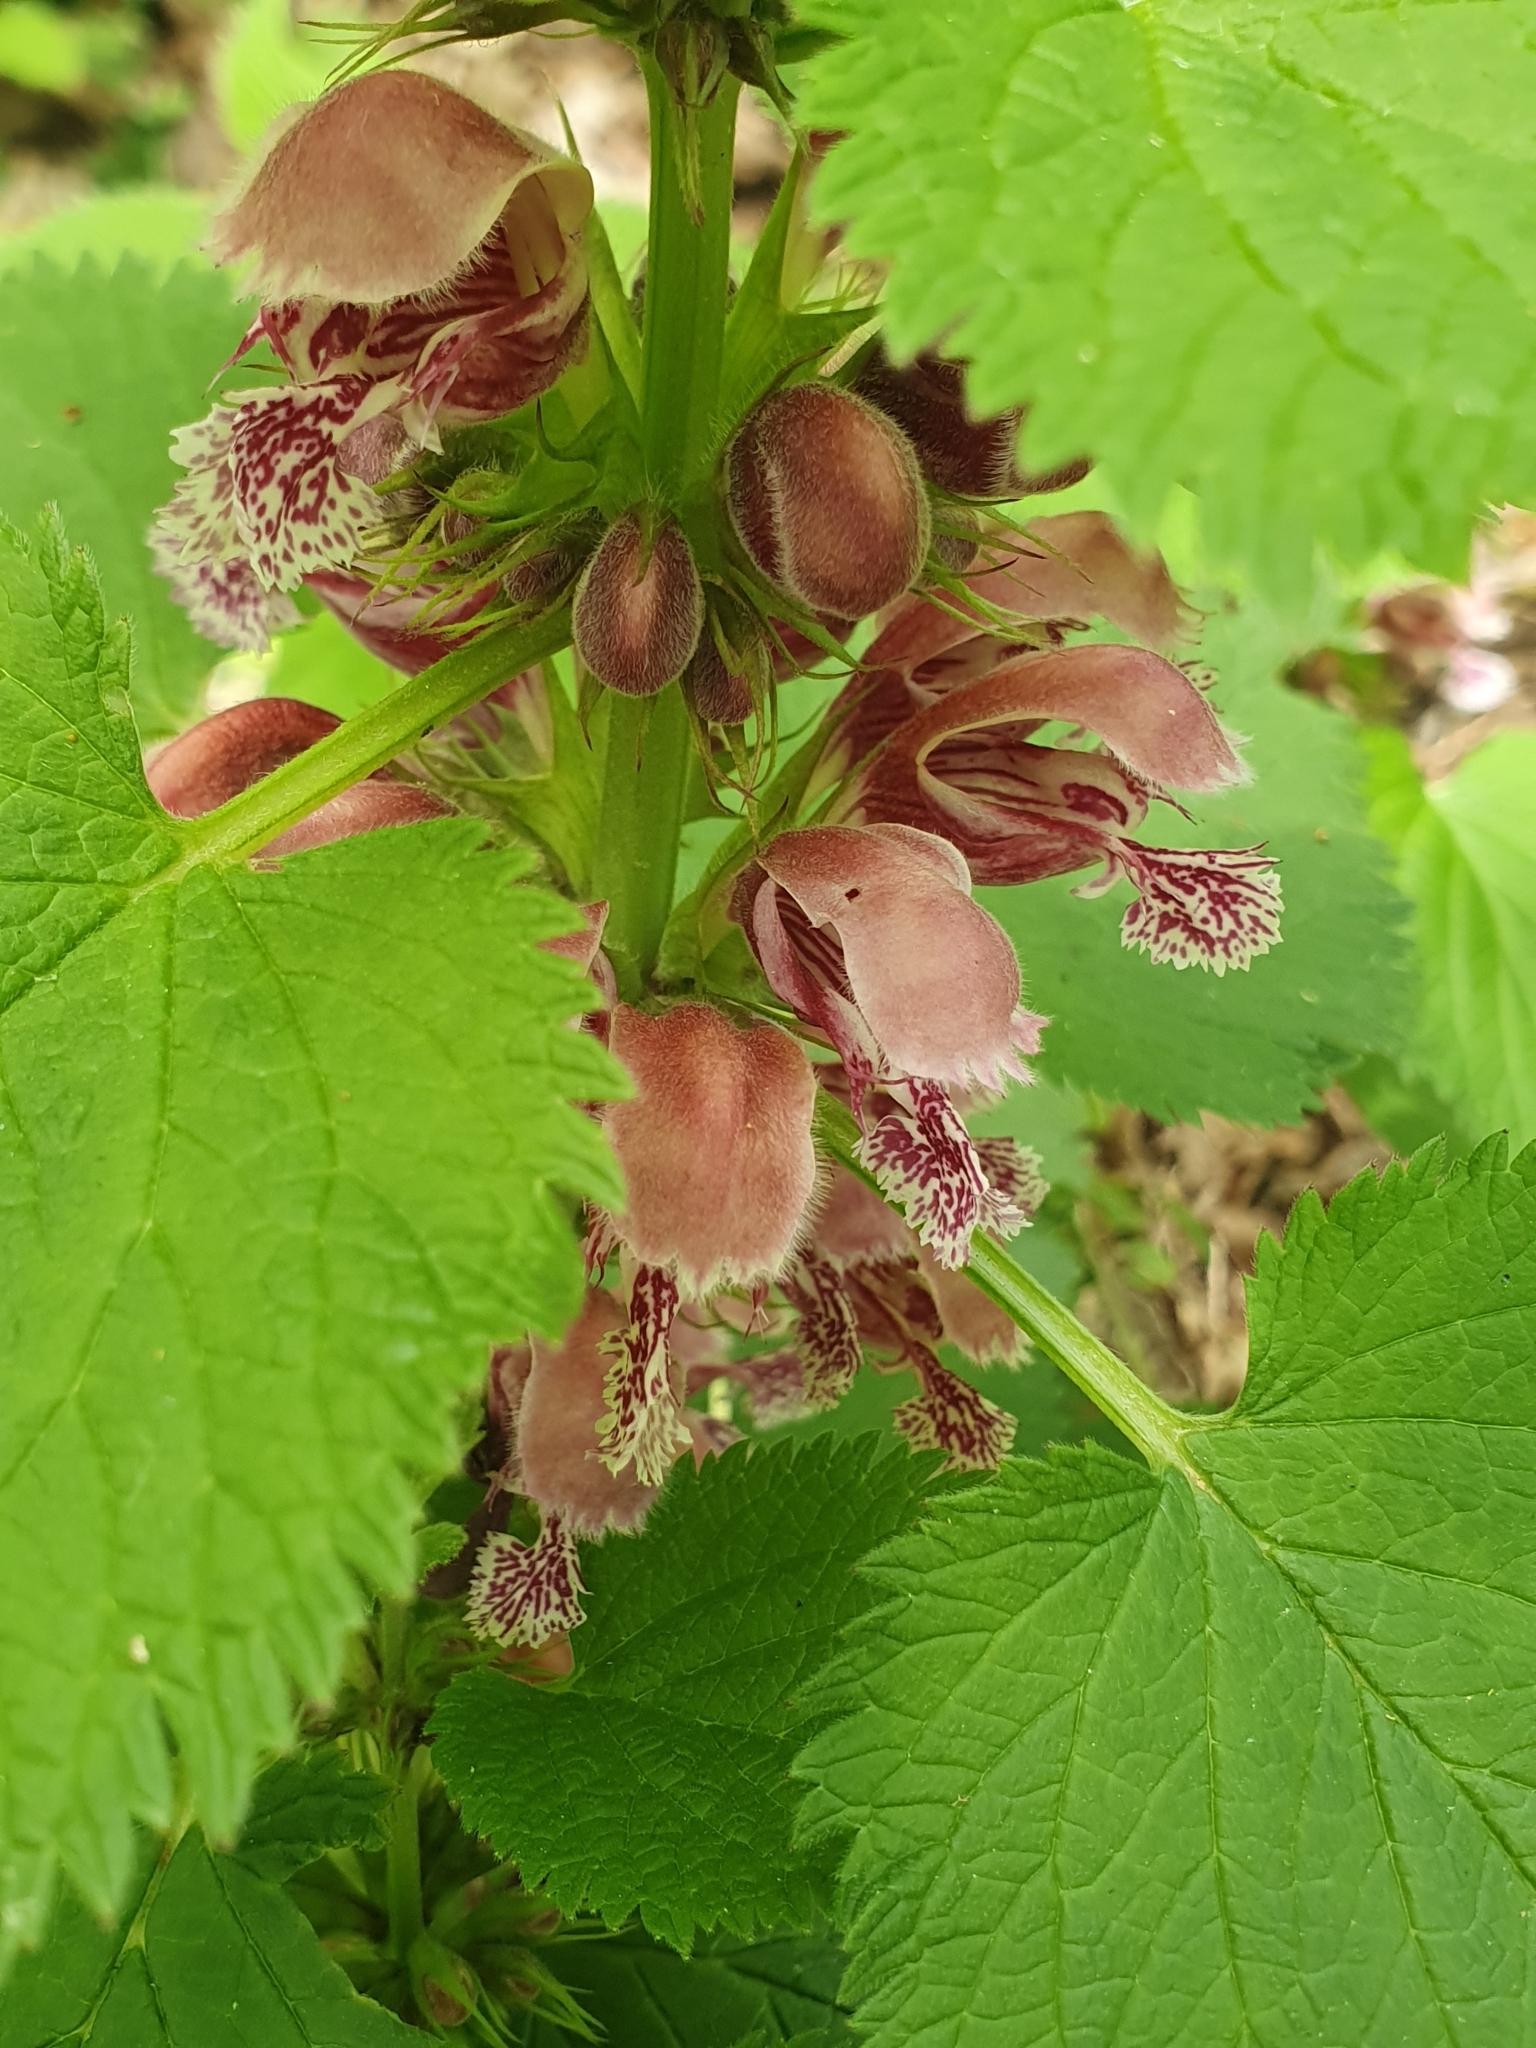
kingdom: Plantae
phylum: Tracheophyta
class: Magnoliopsida
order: Lamiales
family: Lamiaceae
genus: Lamium
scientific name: Lamium orvala
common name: Balm-leaved archangel
